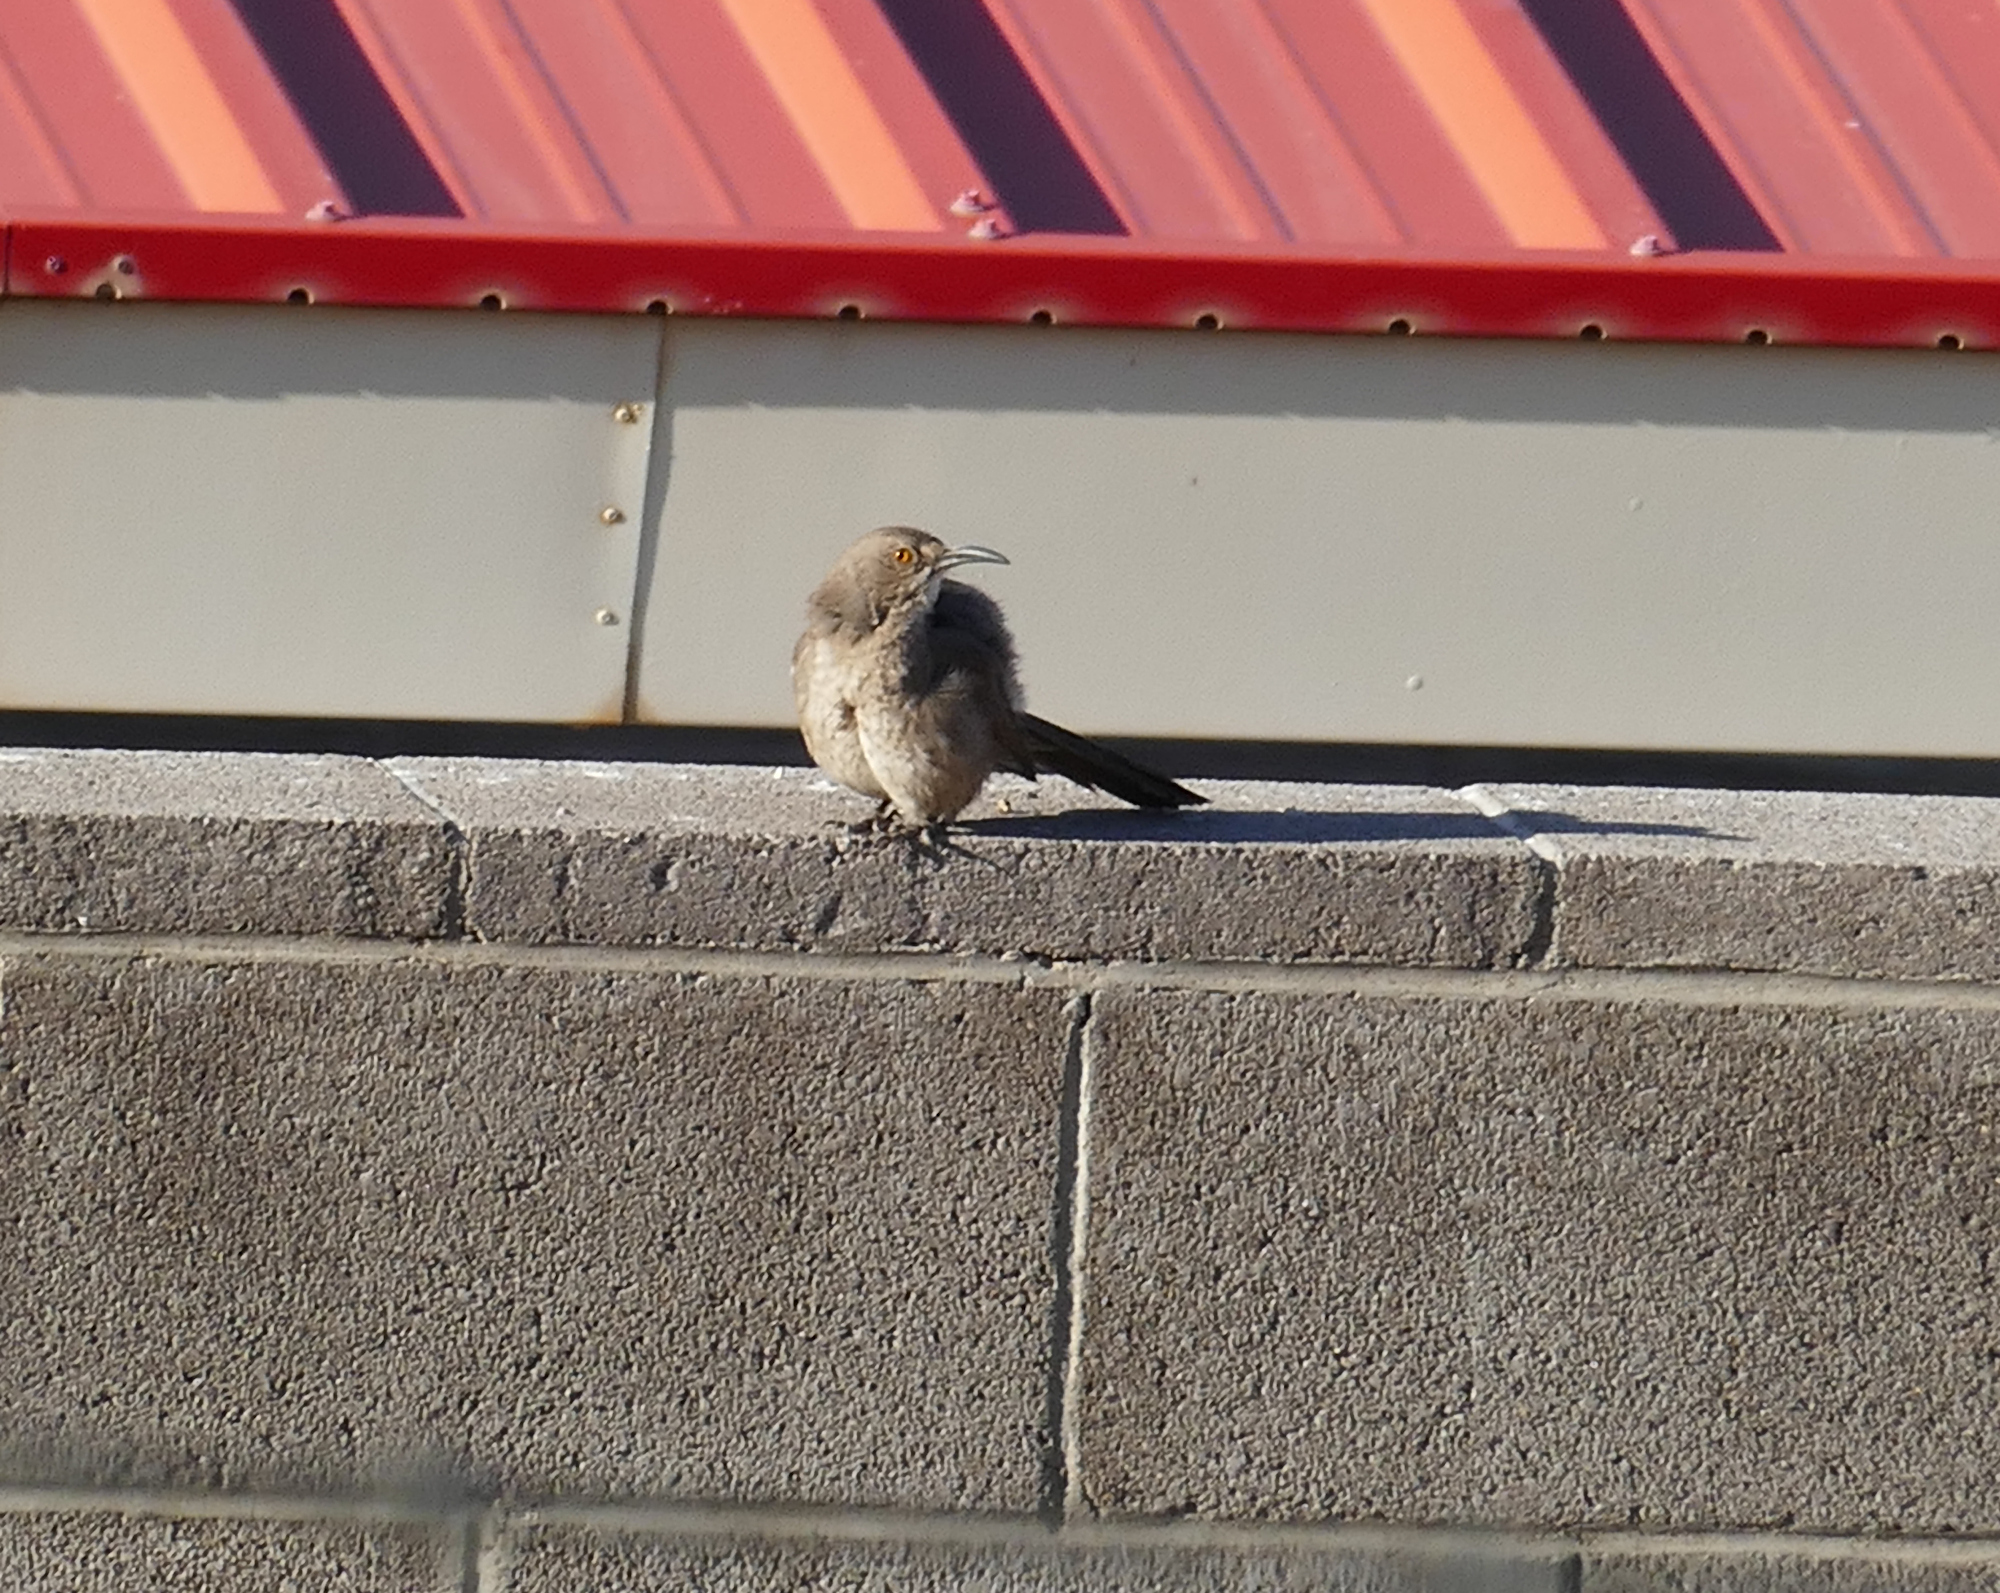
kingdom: Animalia
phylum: Chordata
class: Aves
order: Passeriformes
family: Mimidae
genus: Toxostoma
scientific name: Toxostoma curvirostre
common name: Curve-billed thrasher
